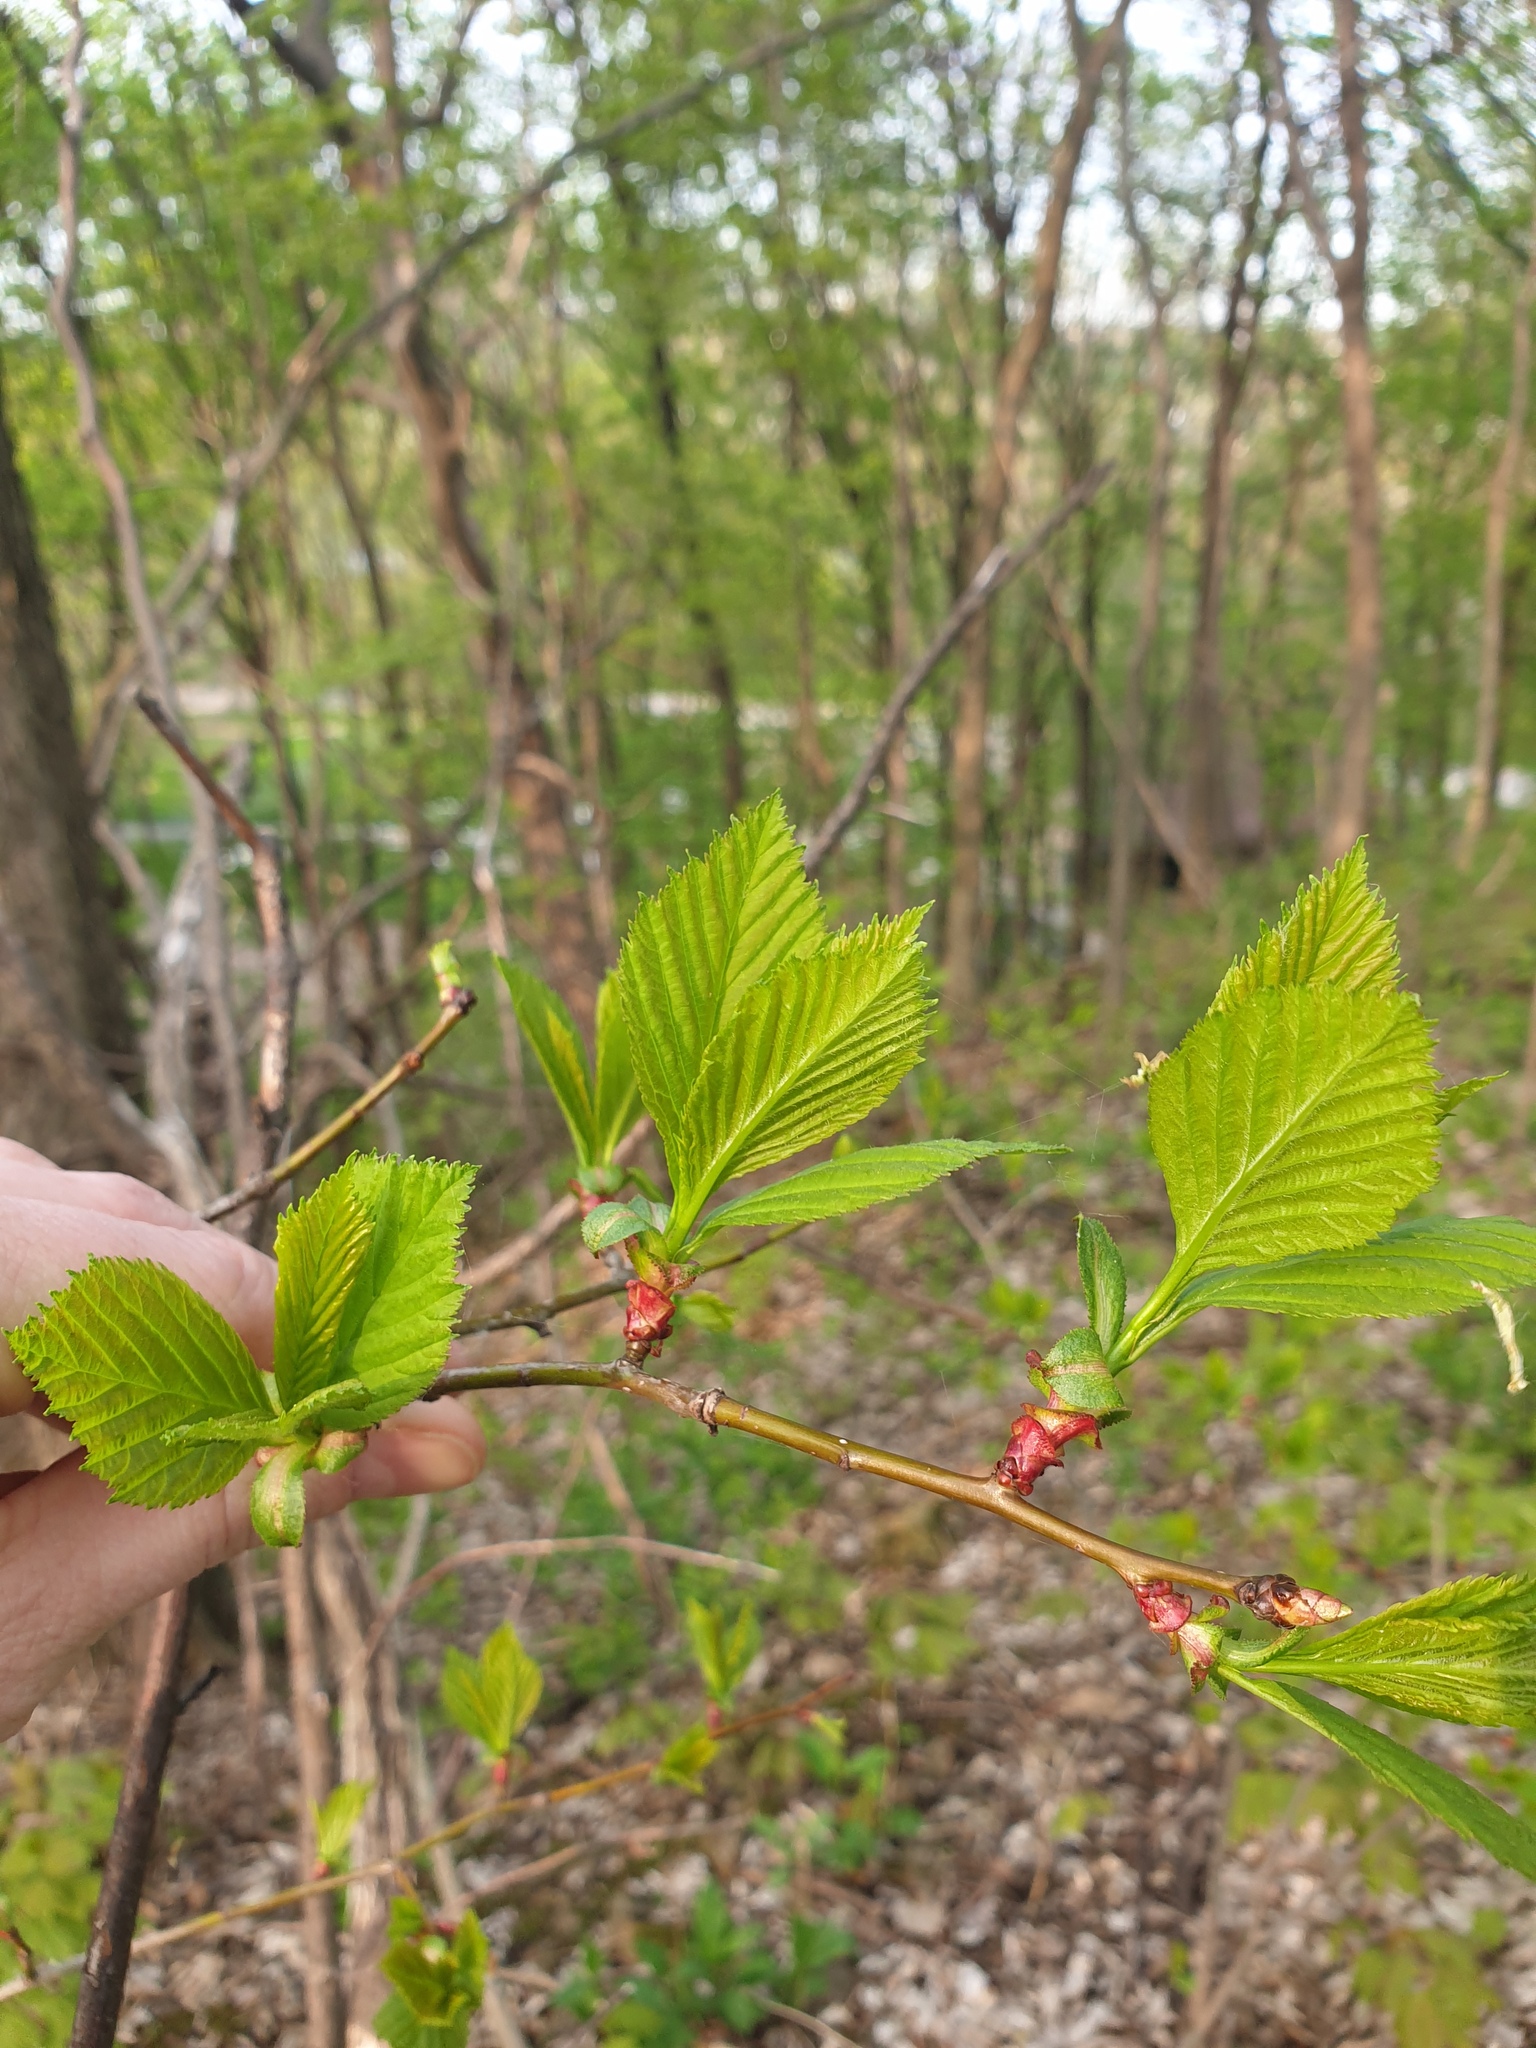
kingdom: Plantae
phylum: Tracheophyta
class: Magnoliopsida
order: Rosales
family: Rosaceae
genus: Crataegus
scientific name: Crataegus macracantha
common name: Large-thorn hawthorn
